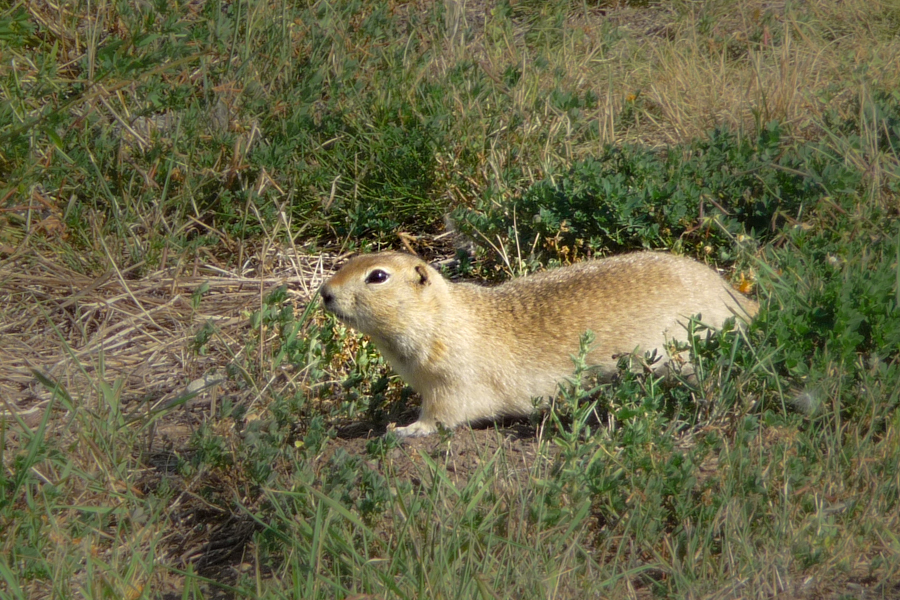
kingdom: Animalia
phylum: Chordata
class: Mammalia
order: Rodentia
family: Sciuridae
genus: Urocitellus
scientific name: Urocitellus richardsonii
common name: Richardson's ground squirrel
